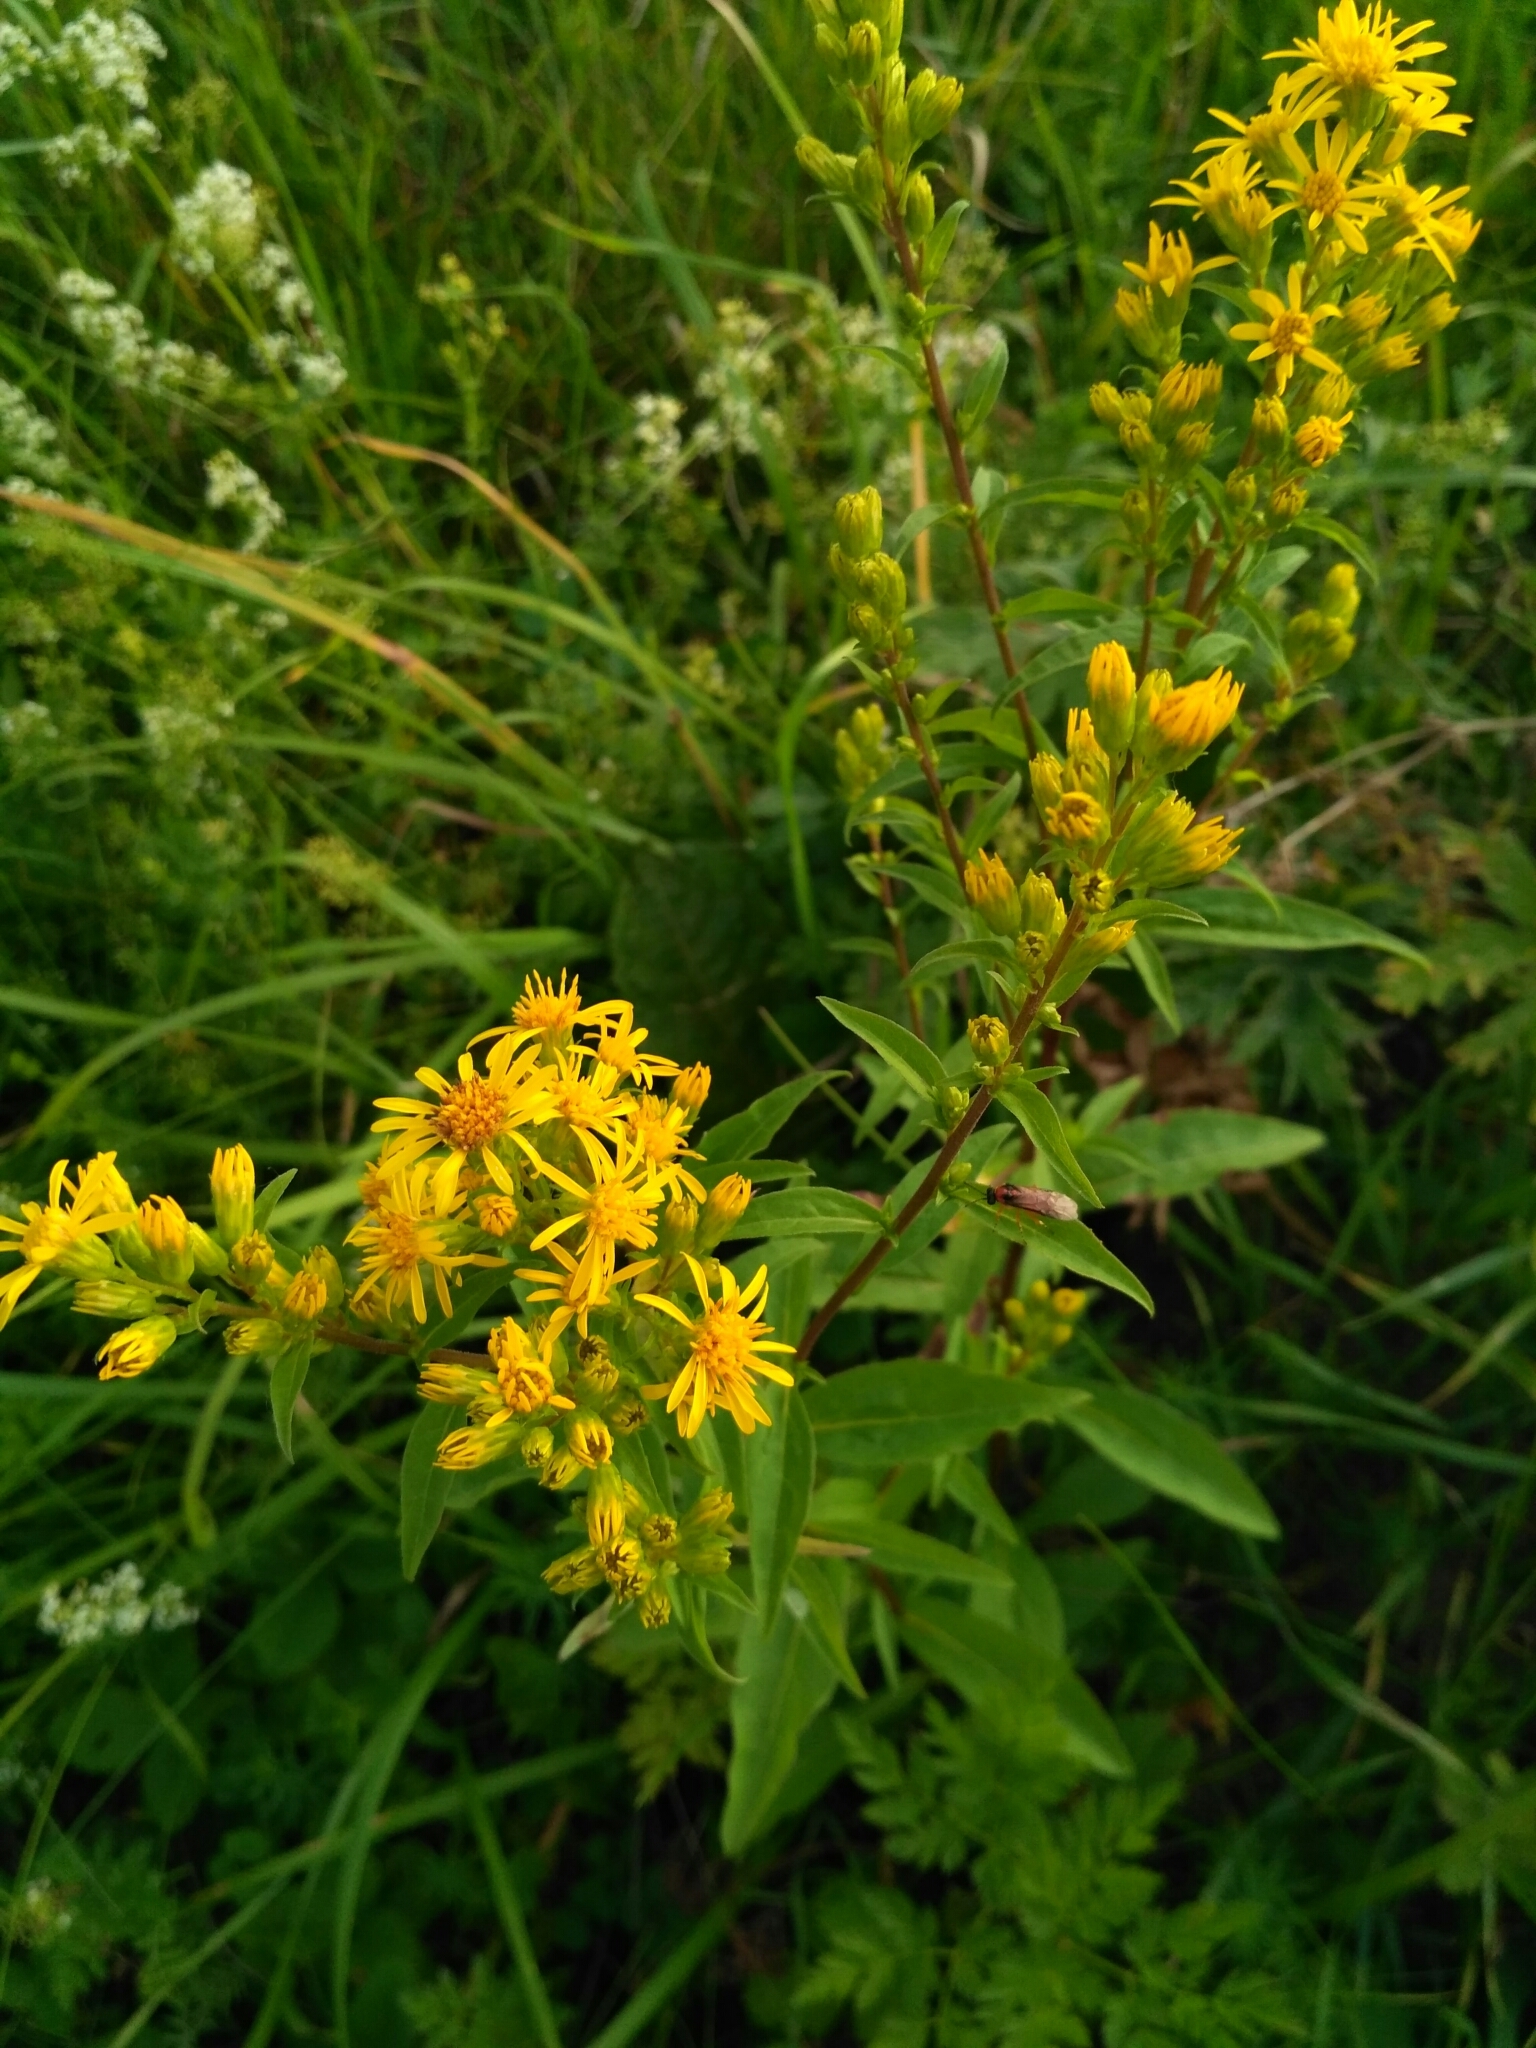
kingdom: Plantae
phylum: Tracheophyta
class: Magnoliopsida
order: Asterales
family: Asteraceae
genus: Solidago
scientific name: Solidago virgaurea
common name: Goldenrod
